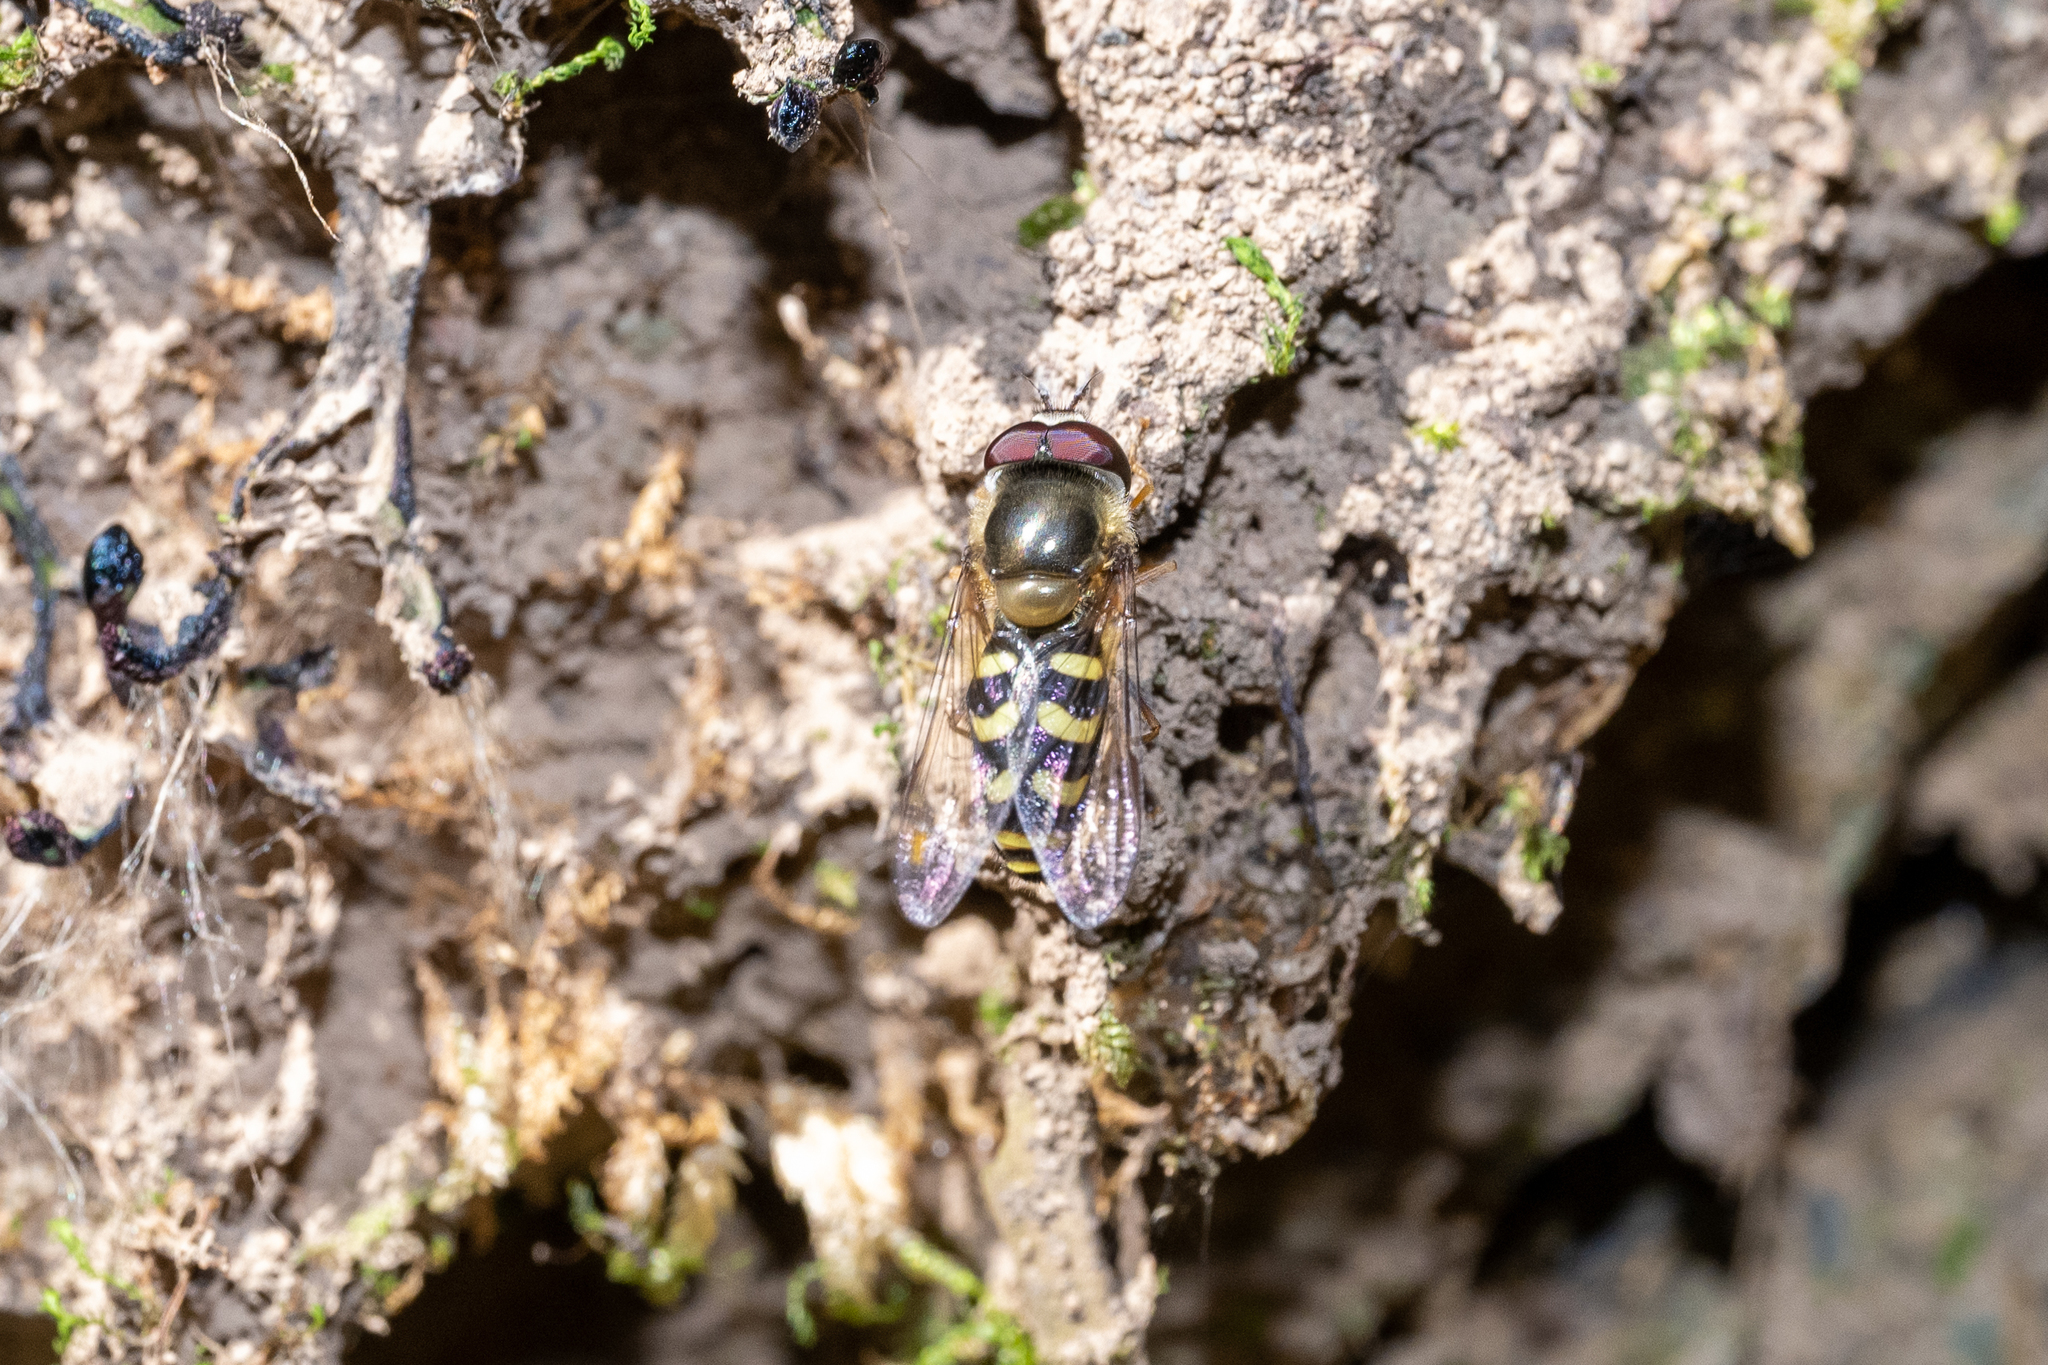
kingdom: Animalia
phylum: Arthropoda
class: Insecta
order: Diptera
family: Syrphidae
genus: Lapposyrphus
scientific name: Lapposyrphus lapponicus
